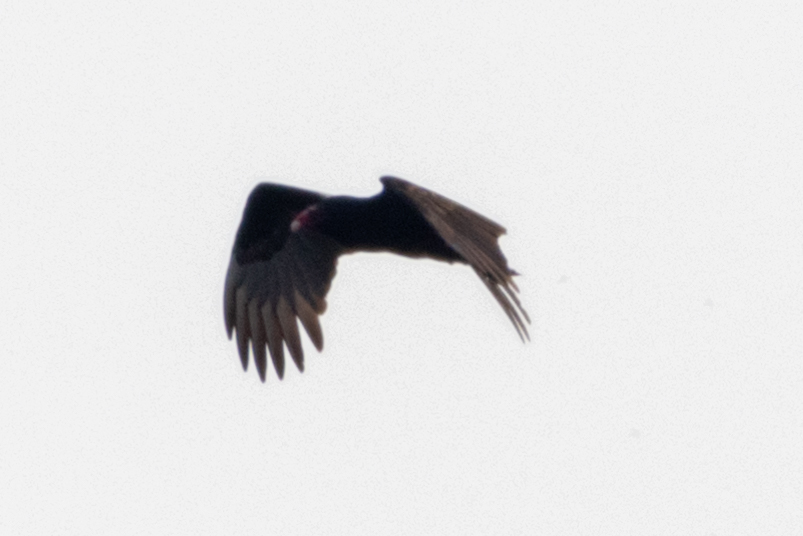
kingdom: Animalia
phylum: Chordata
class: Aves
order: Accipitriformes
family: Cathartidae
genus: Cathartes
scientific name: Cathartes aura
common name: Turkey vulture
